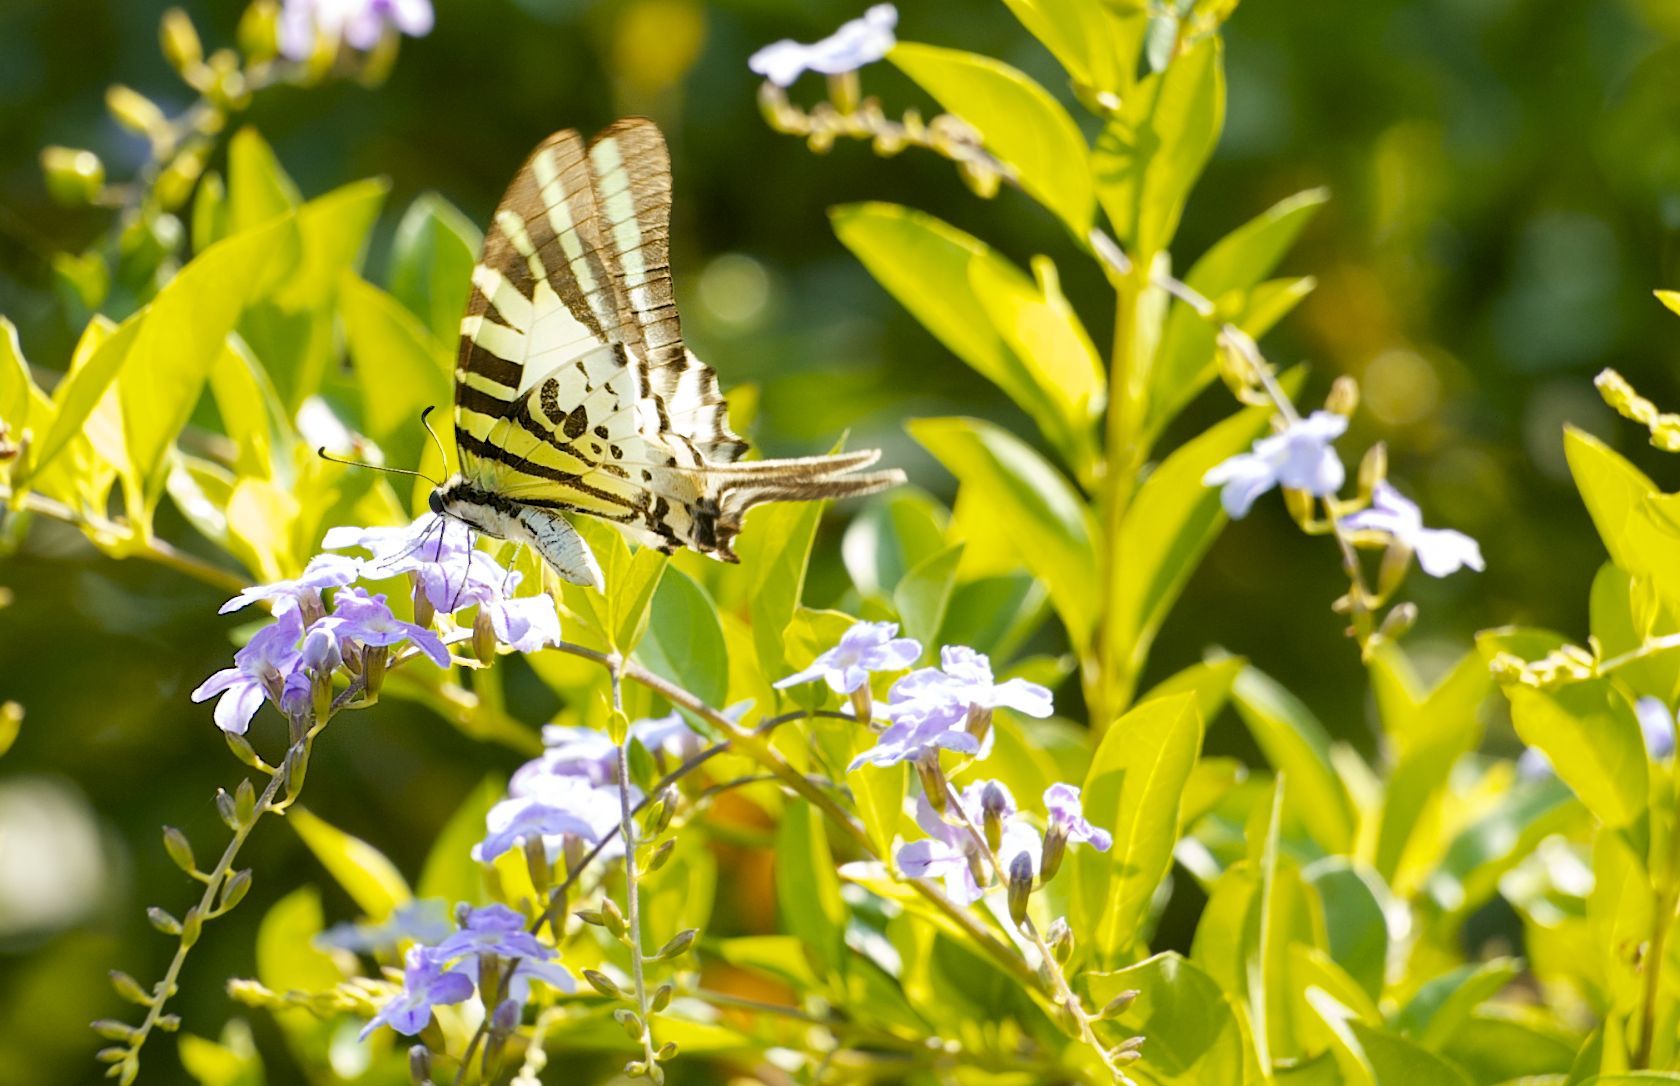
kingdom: Animalia
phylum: Arthropoda
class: Insecta
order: Lepidoptera
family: Papilionidae
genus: Graphium
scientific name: Graphium antiphates
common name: Fivebar swordtail
